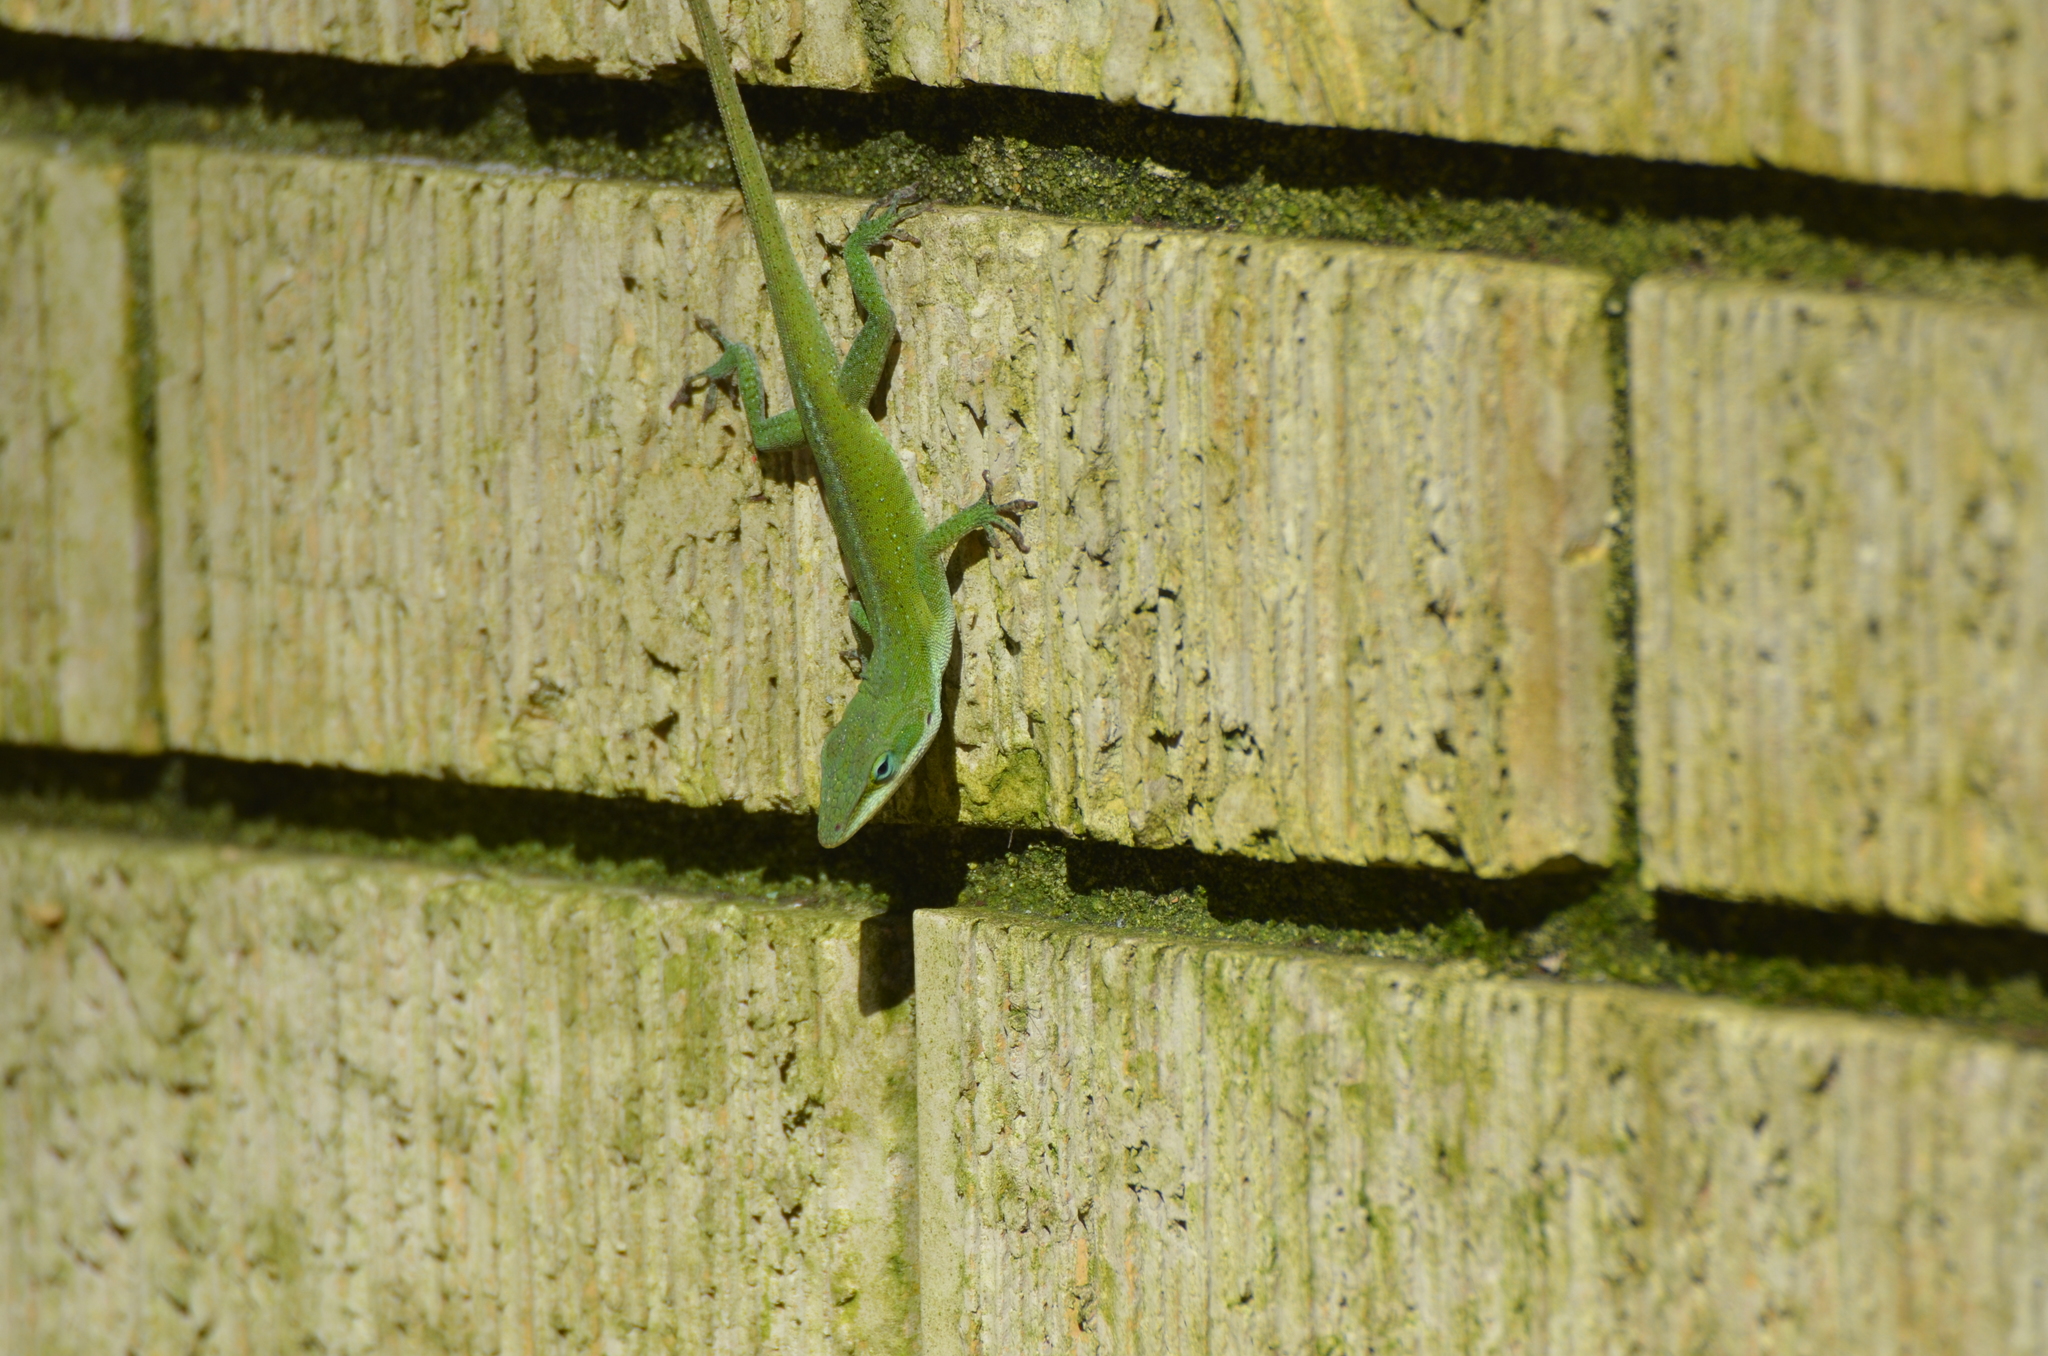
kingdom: Animalia
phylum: Chordata
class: Squamata
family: Dactyloidae
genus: Anolis
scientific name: Anolis carolinensis
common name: Green anole
